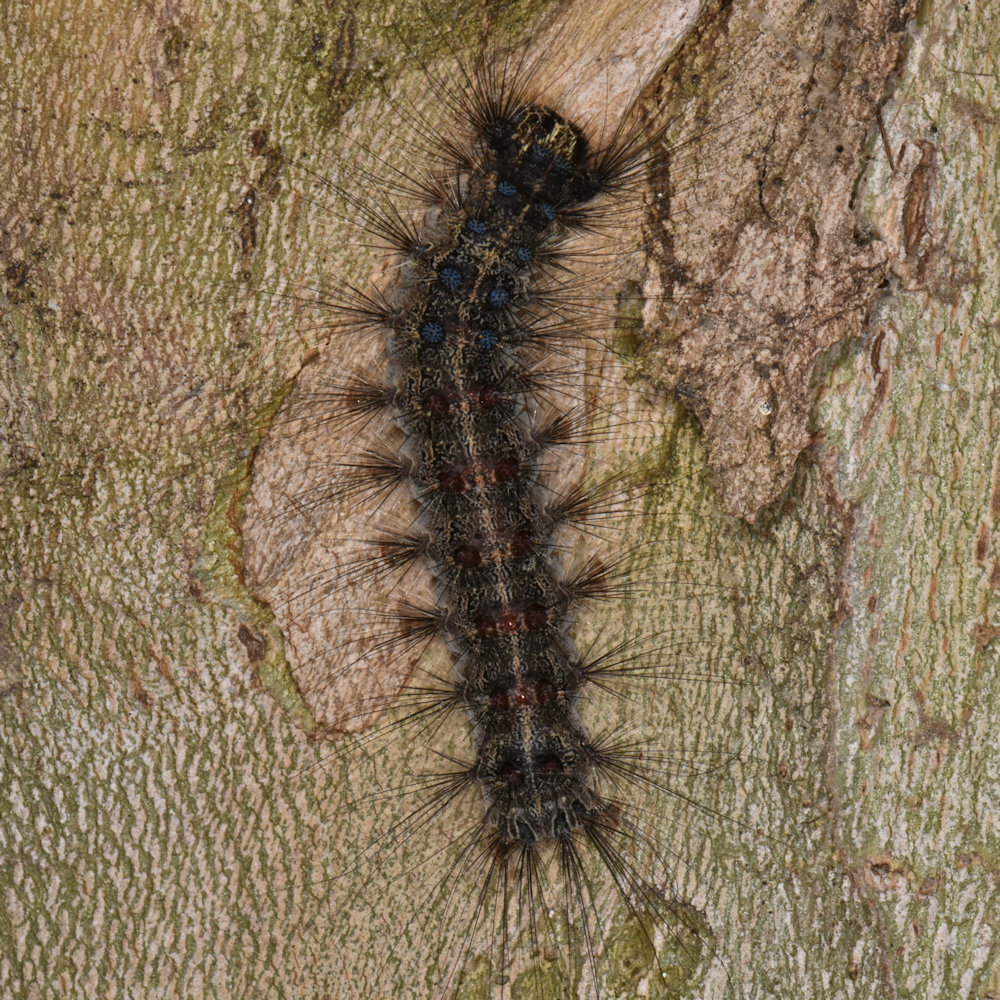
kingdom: Animalia
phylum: Arthropoda
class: Insecta
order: Lepidoptera
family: Erebidae
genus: Lymantria
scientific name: Lymantria dispar
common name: Gypsy moth
